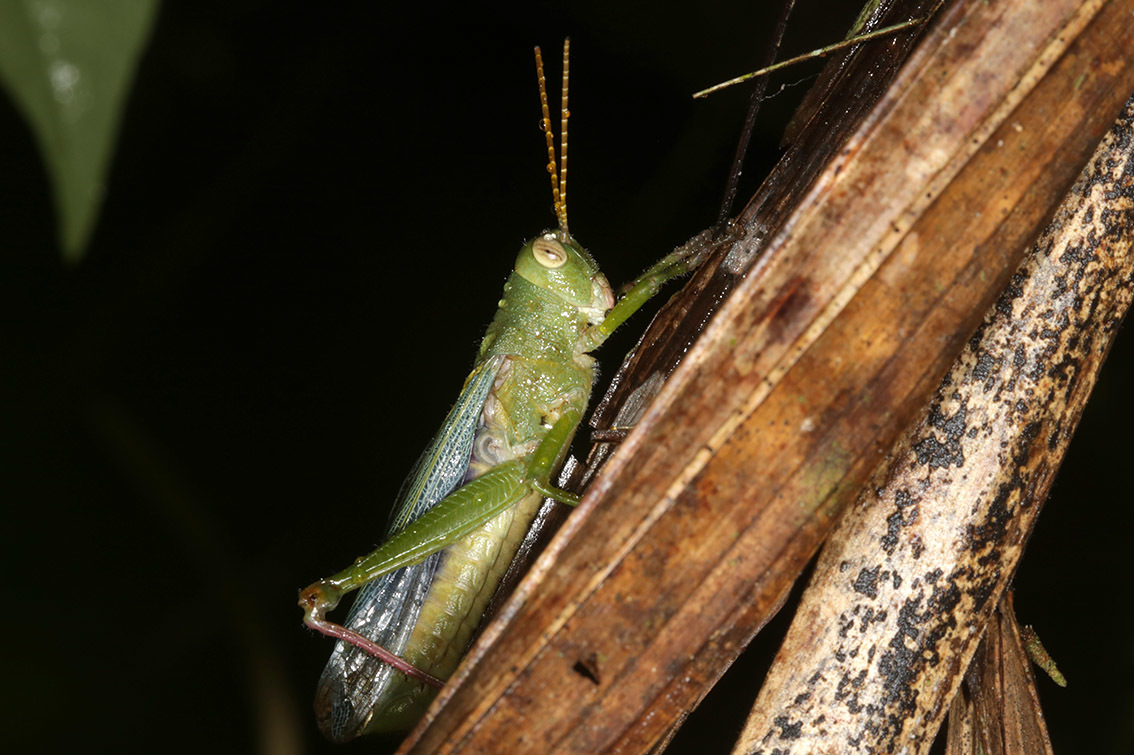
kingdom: Animalia
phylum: Arthropoda
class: Insecta
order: Orthoptera
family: Romaleidae
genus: Zoniopoda
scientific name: Zoniopoda hempeli
